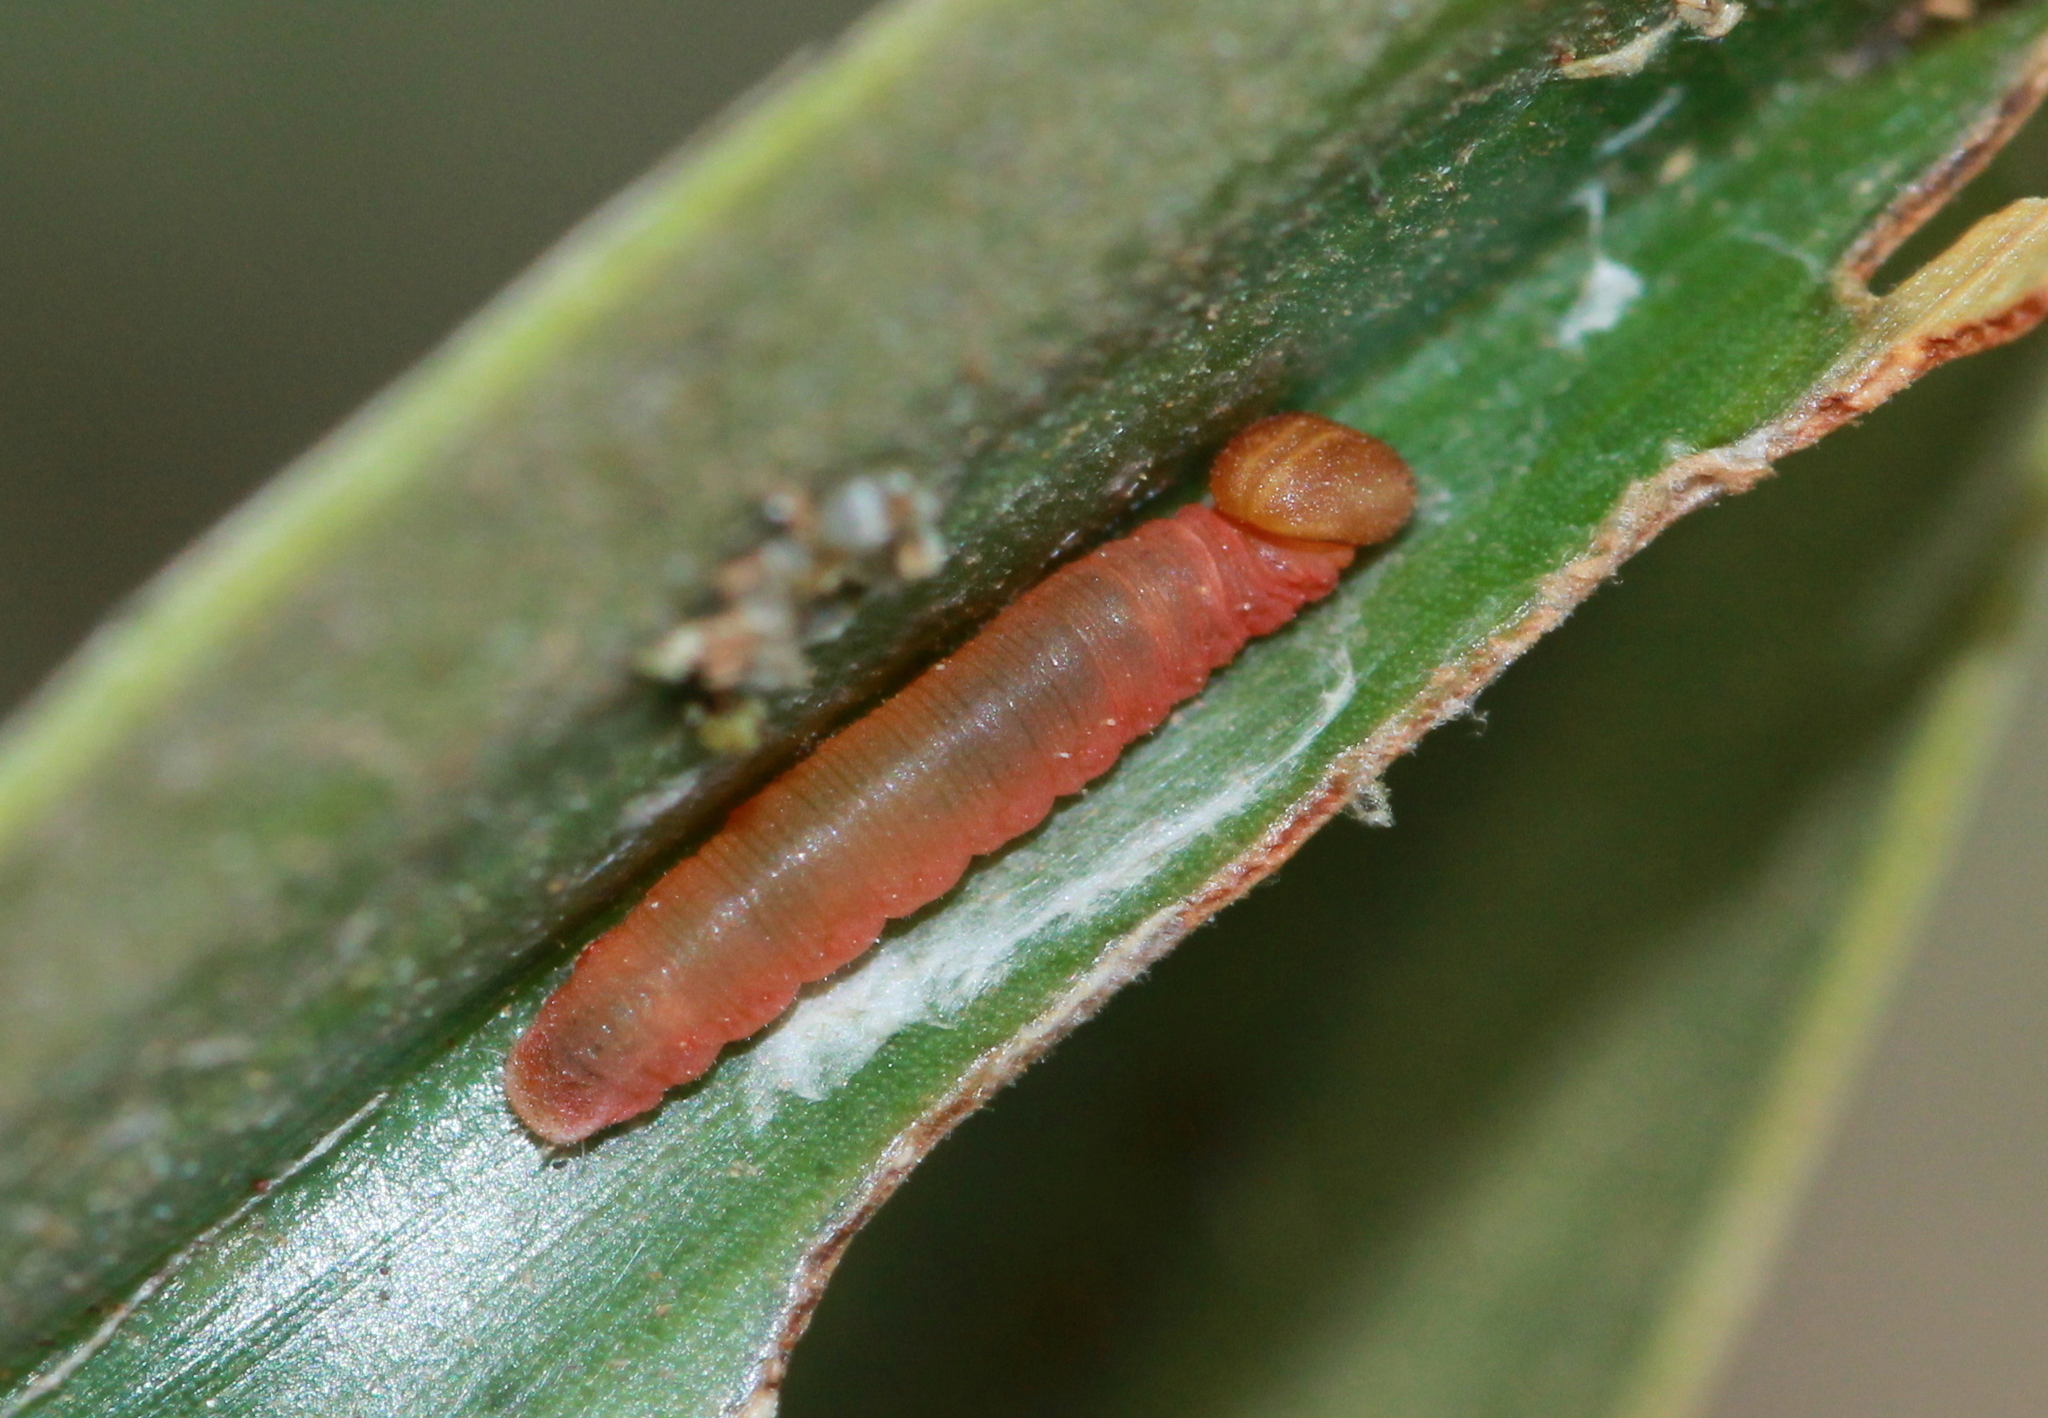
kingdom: Animalia
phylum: Arthropoda
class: Insecta
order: Lepidoptera
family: Hesperiidae
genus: Suastus
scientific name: Suastus gremius
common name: Indian palm bob
